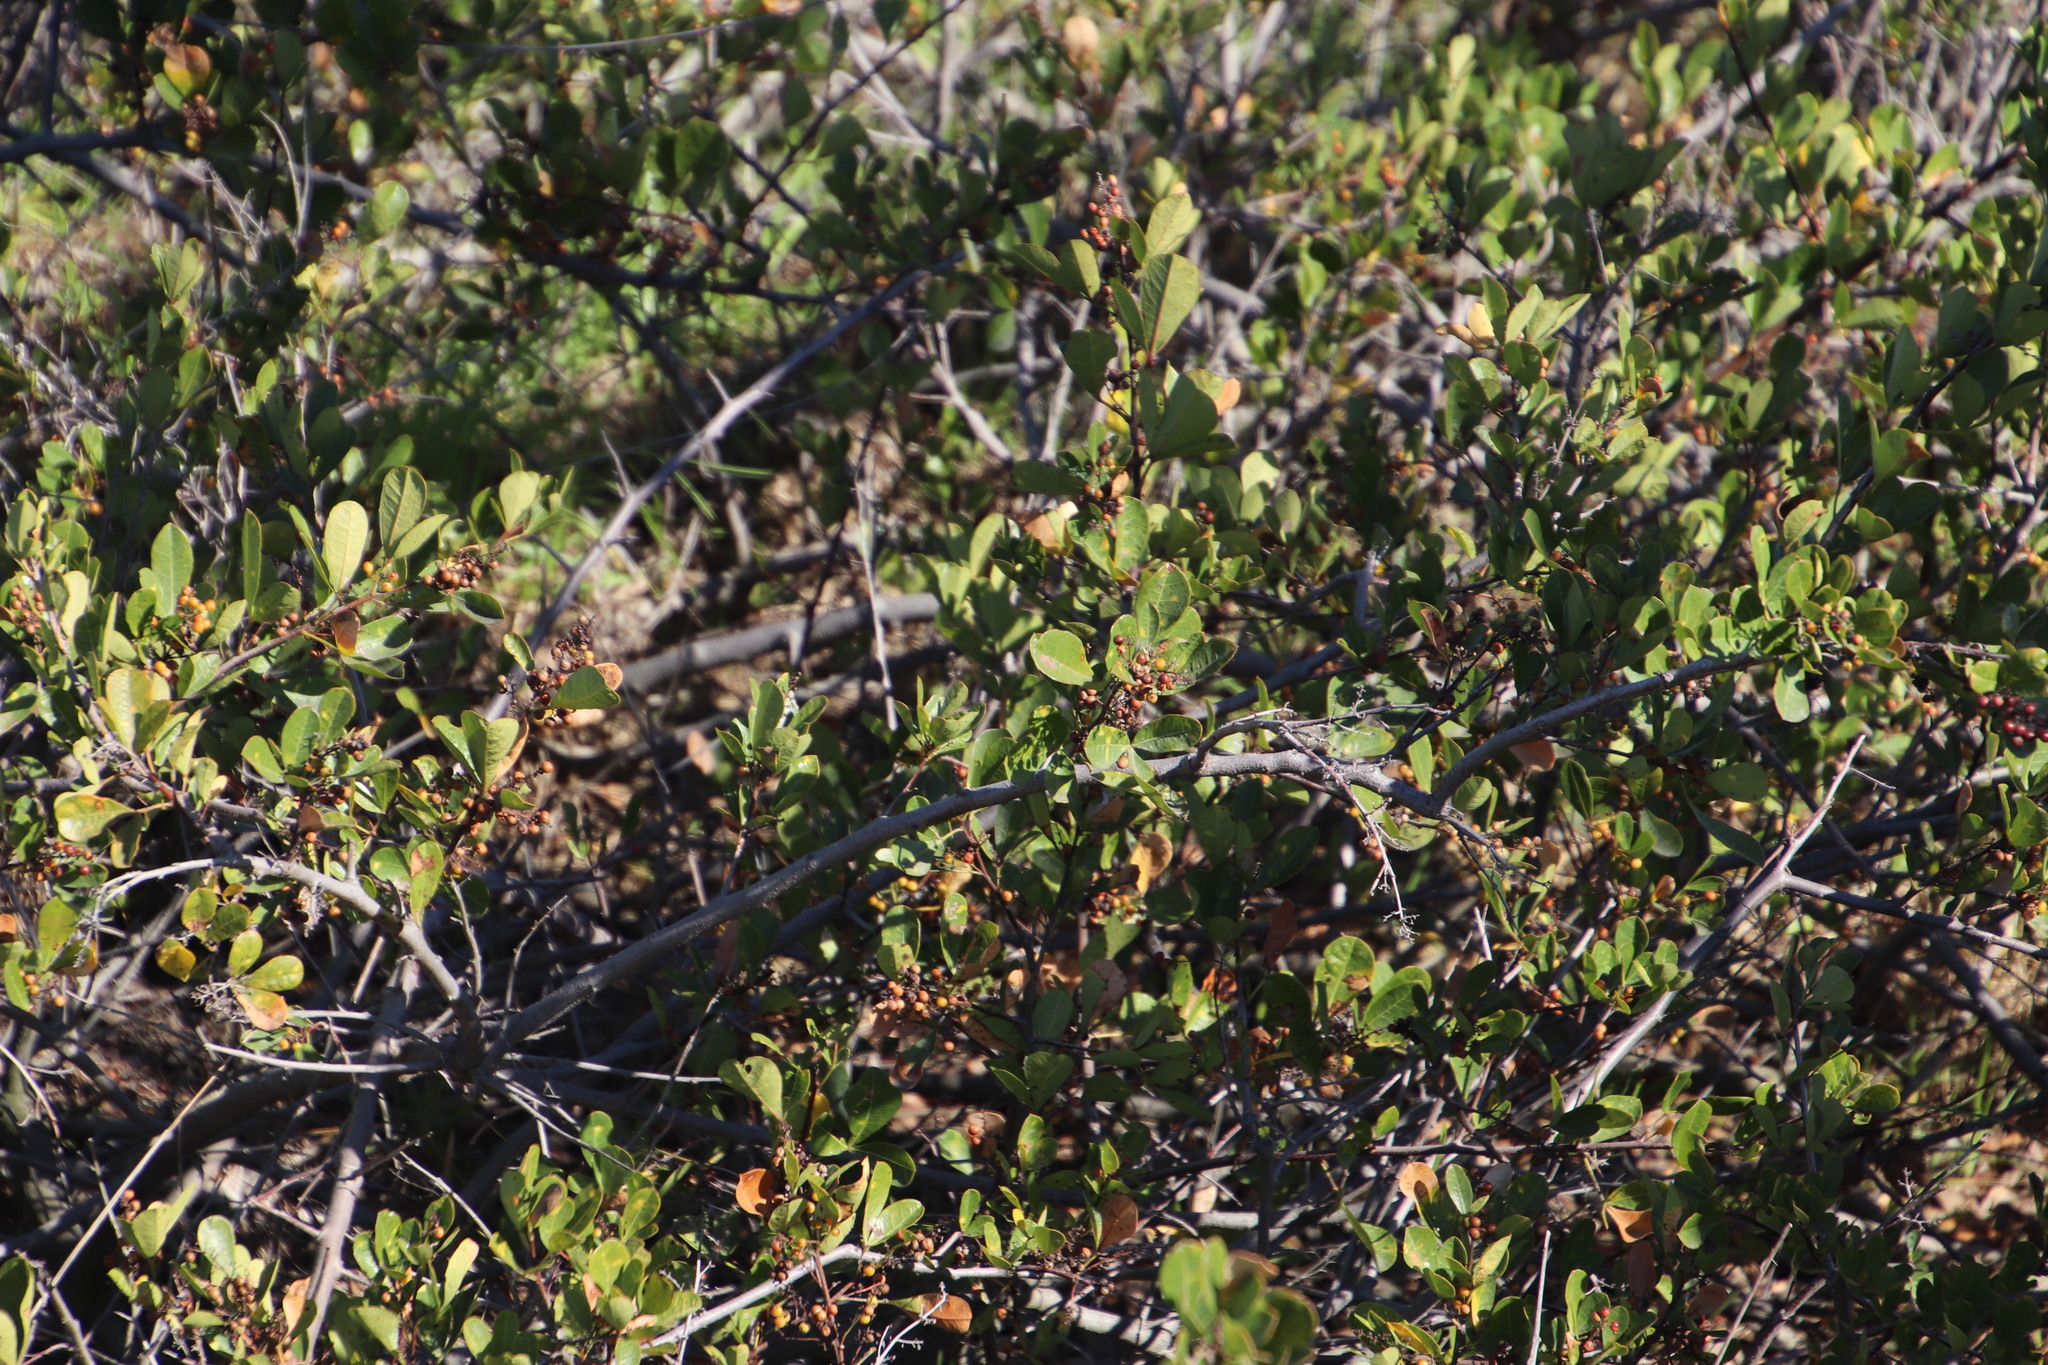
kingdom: Plantae
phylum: Tracheophyta
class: Magnoliopsida
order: Sapindales
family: Anacardiaceae
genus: Searsia
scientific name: Searsia laevigata
